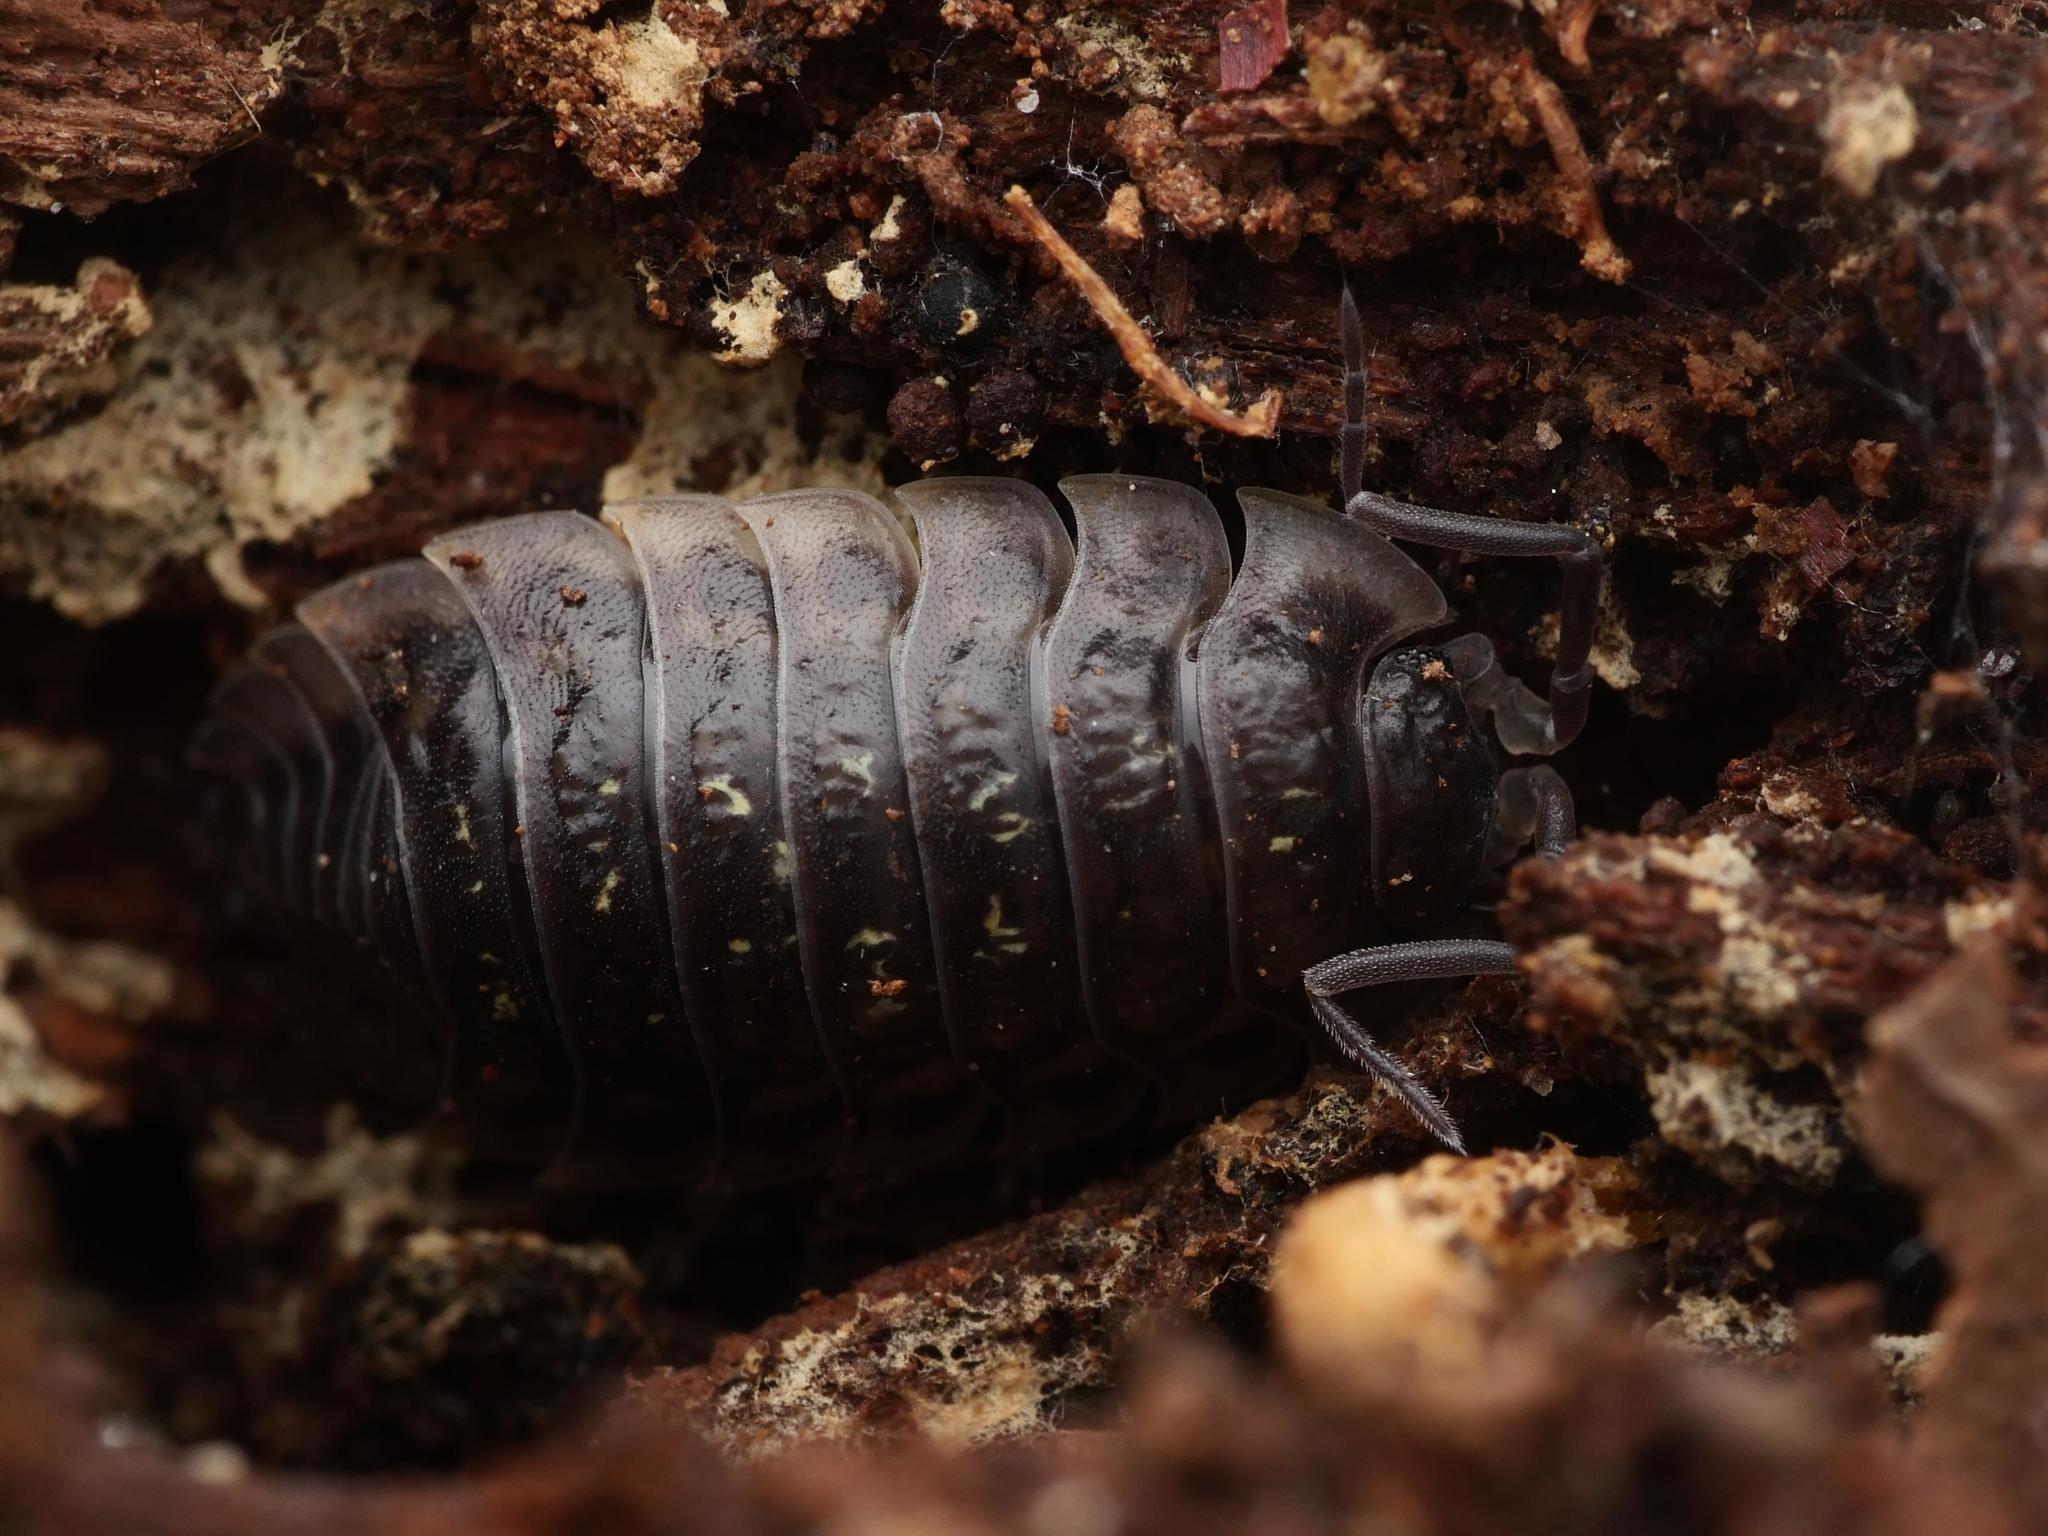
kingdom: Animalia
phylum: Arthropoda
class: Malacostraca
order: Isopoda
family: Oniscidae
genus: Oniscus
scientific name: Oniscus asellus
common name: Common shiny woodlouse
